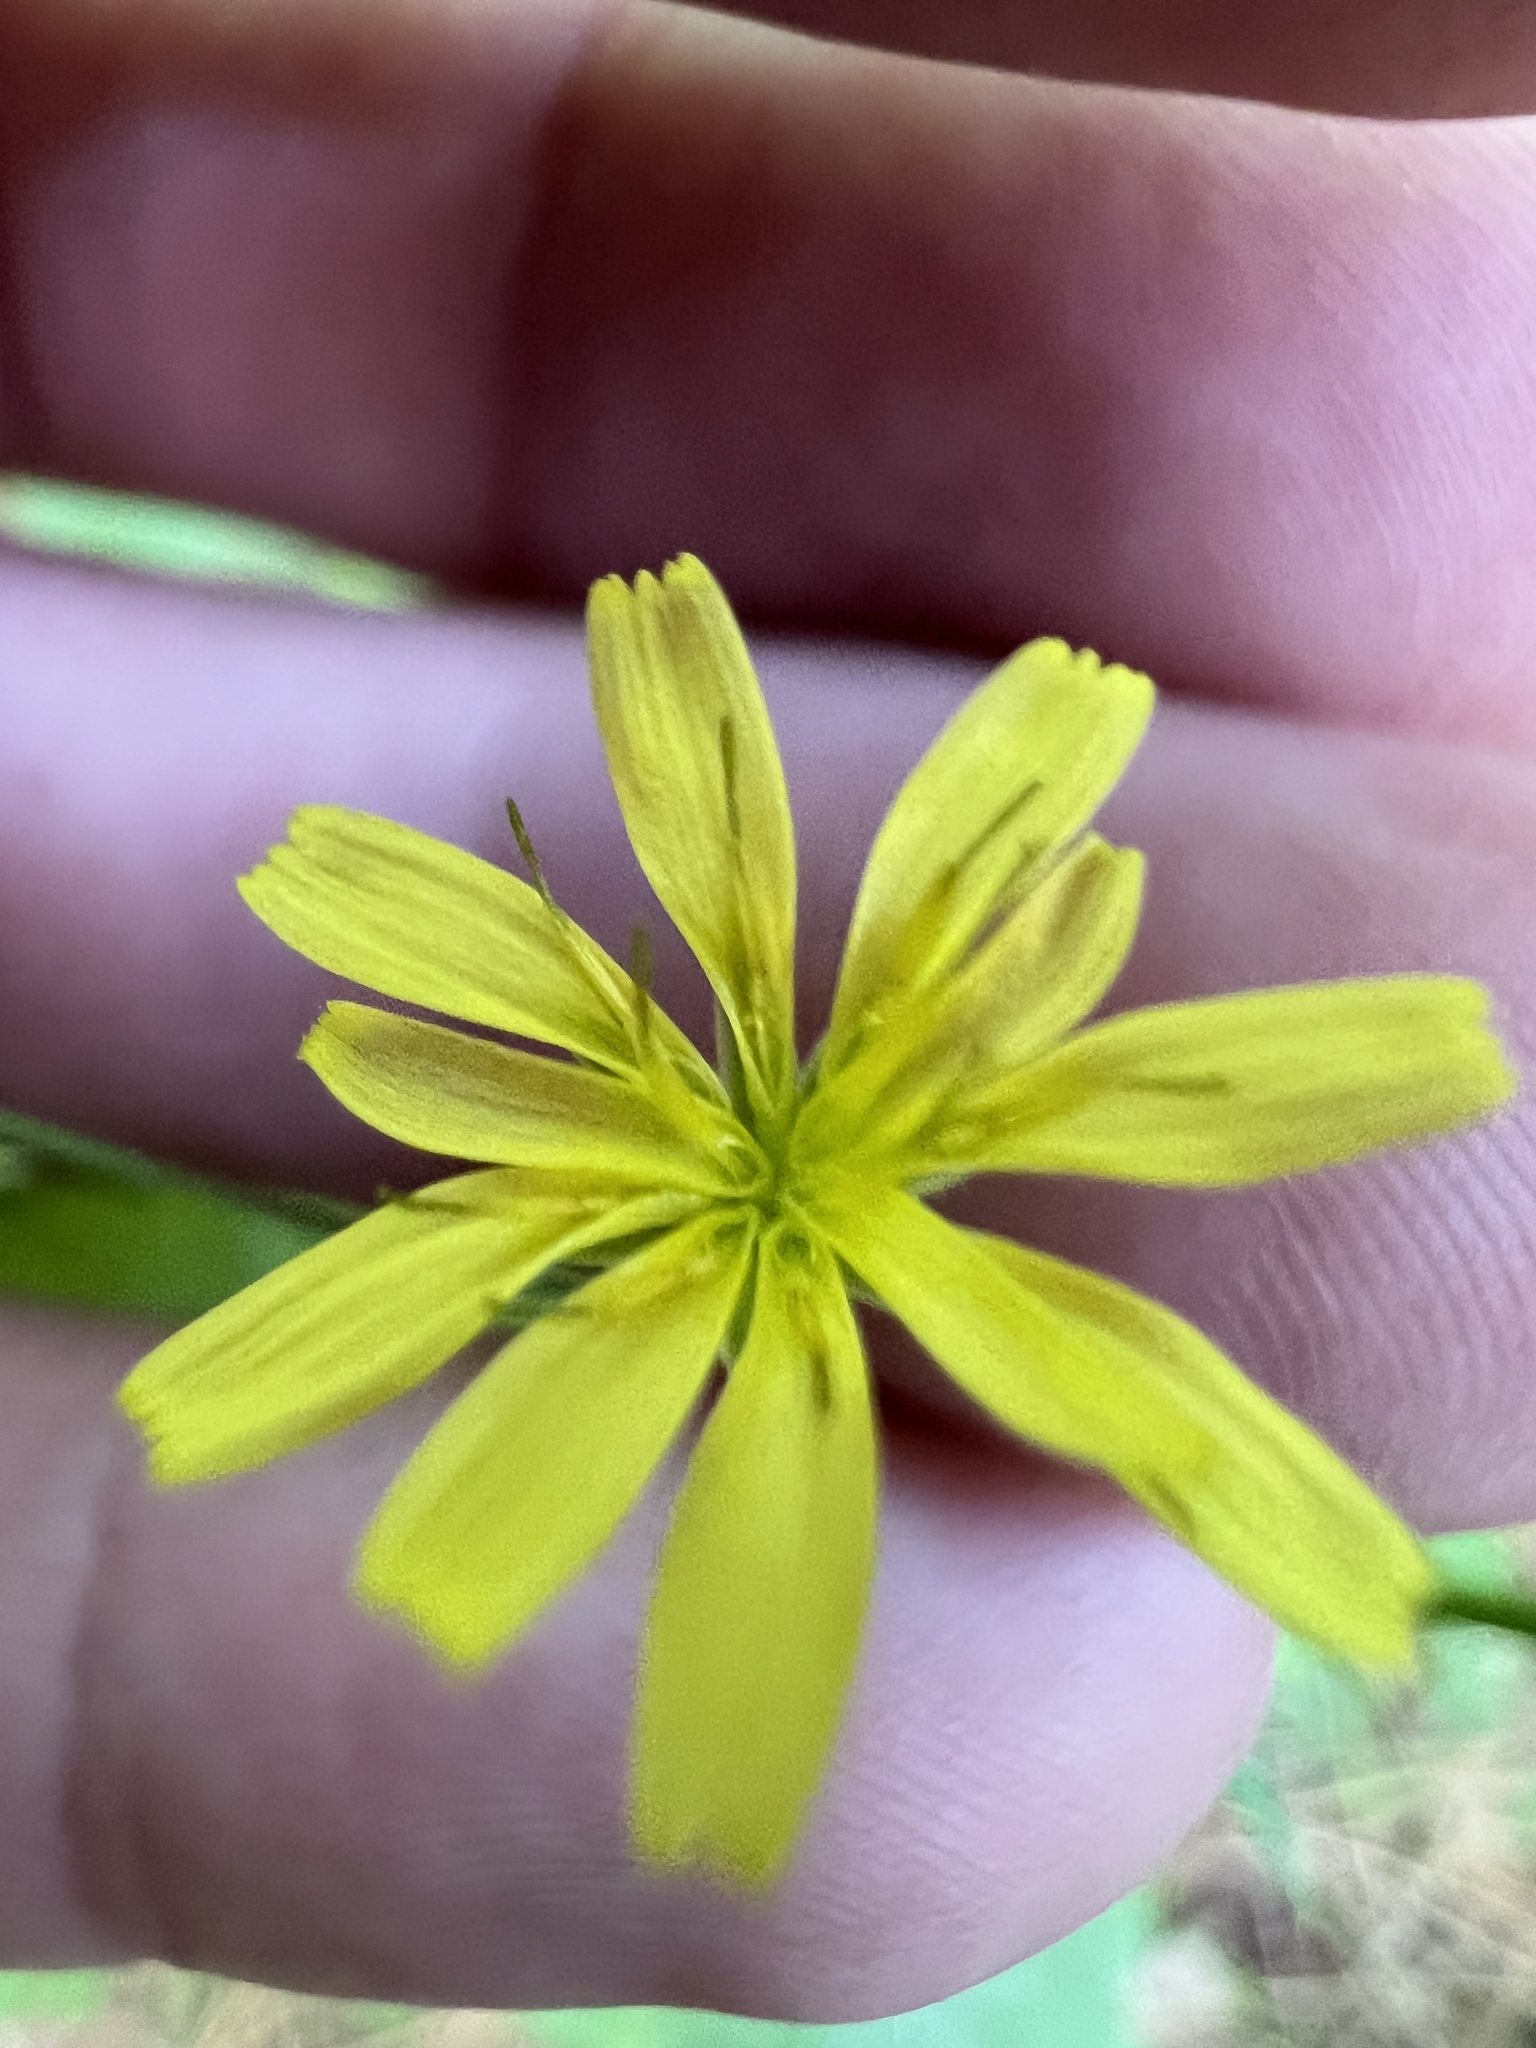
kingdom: Plantae
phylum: Tracheophyta
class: Magnoliopsida
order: Asterales
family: Asteraceae
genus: Lapsana
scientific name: Lapsana communis
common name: Nipplewort
